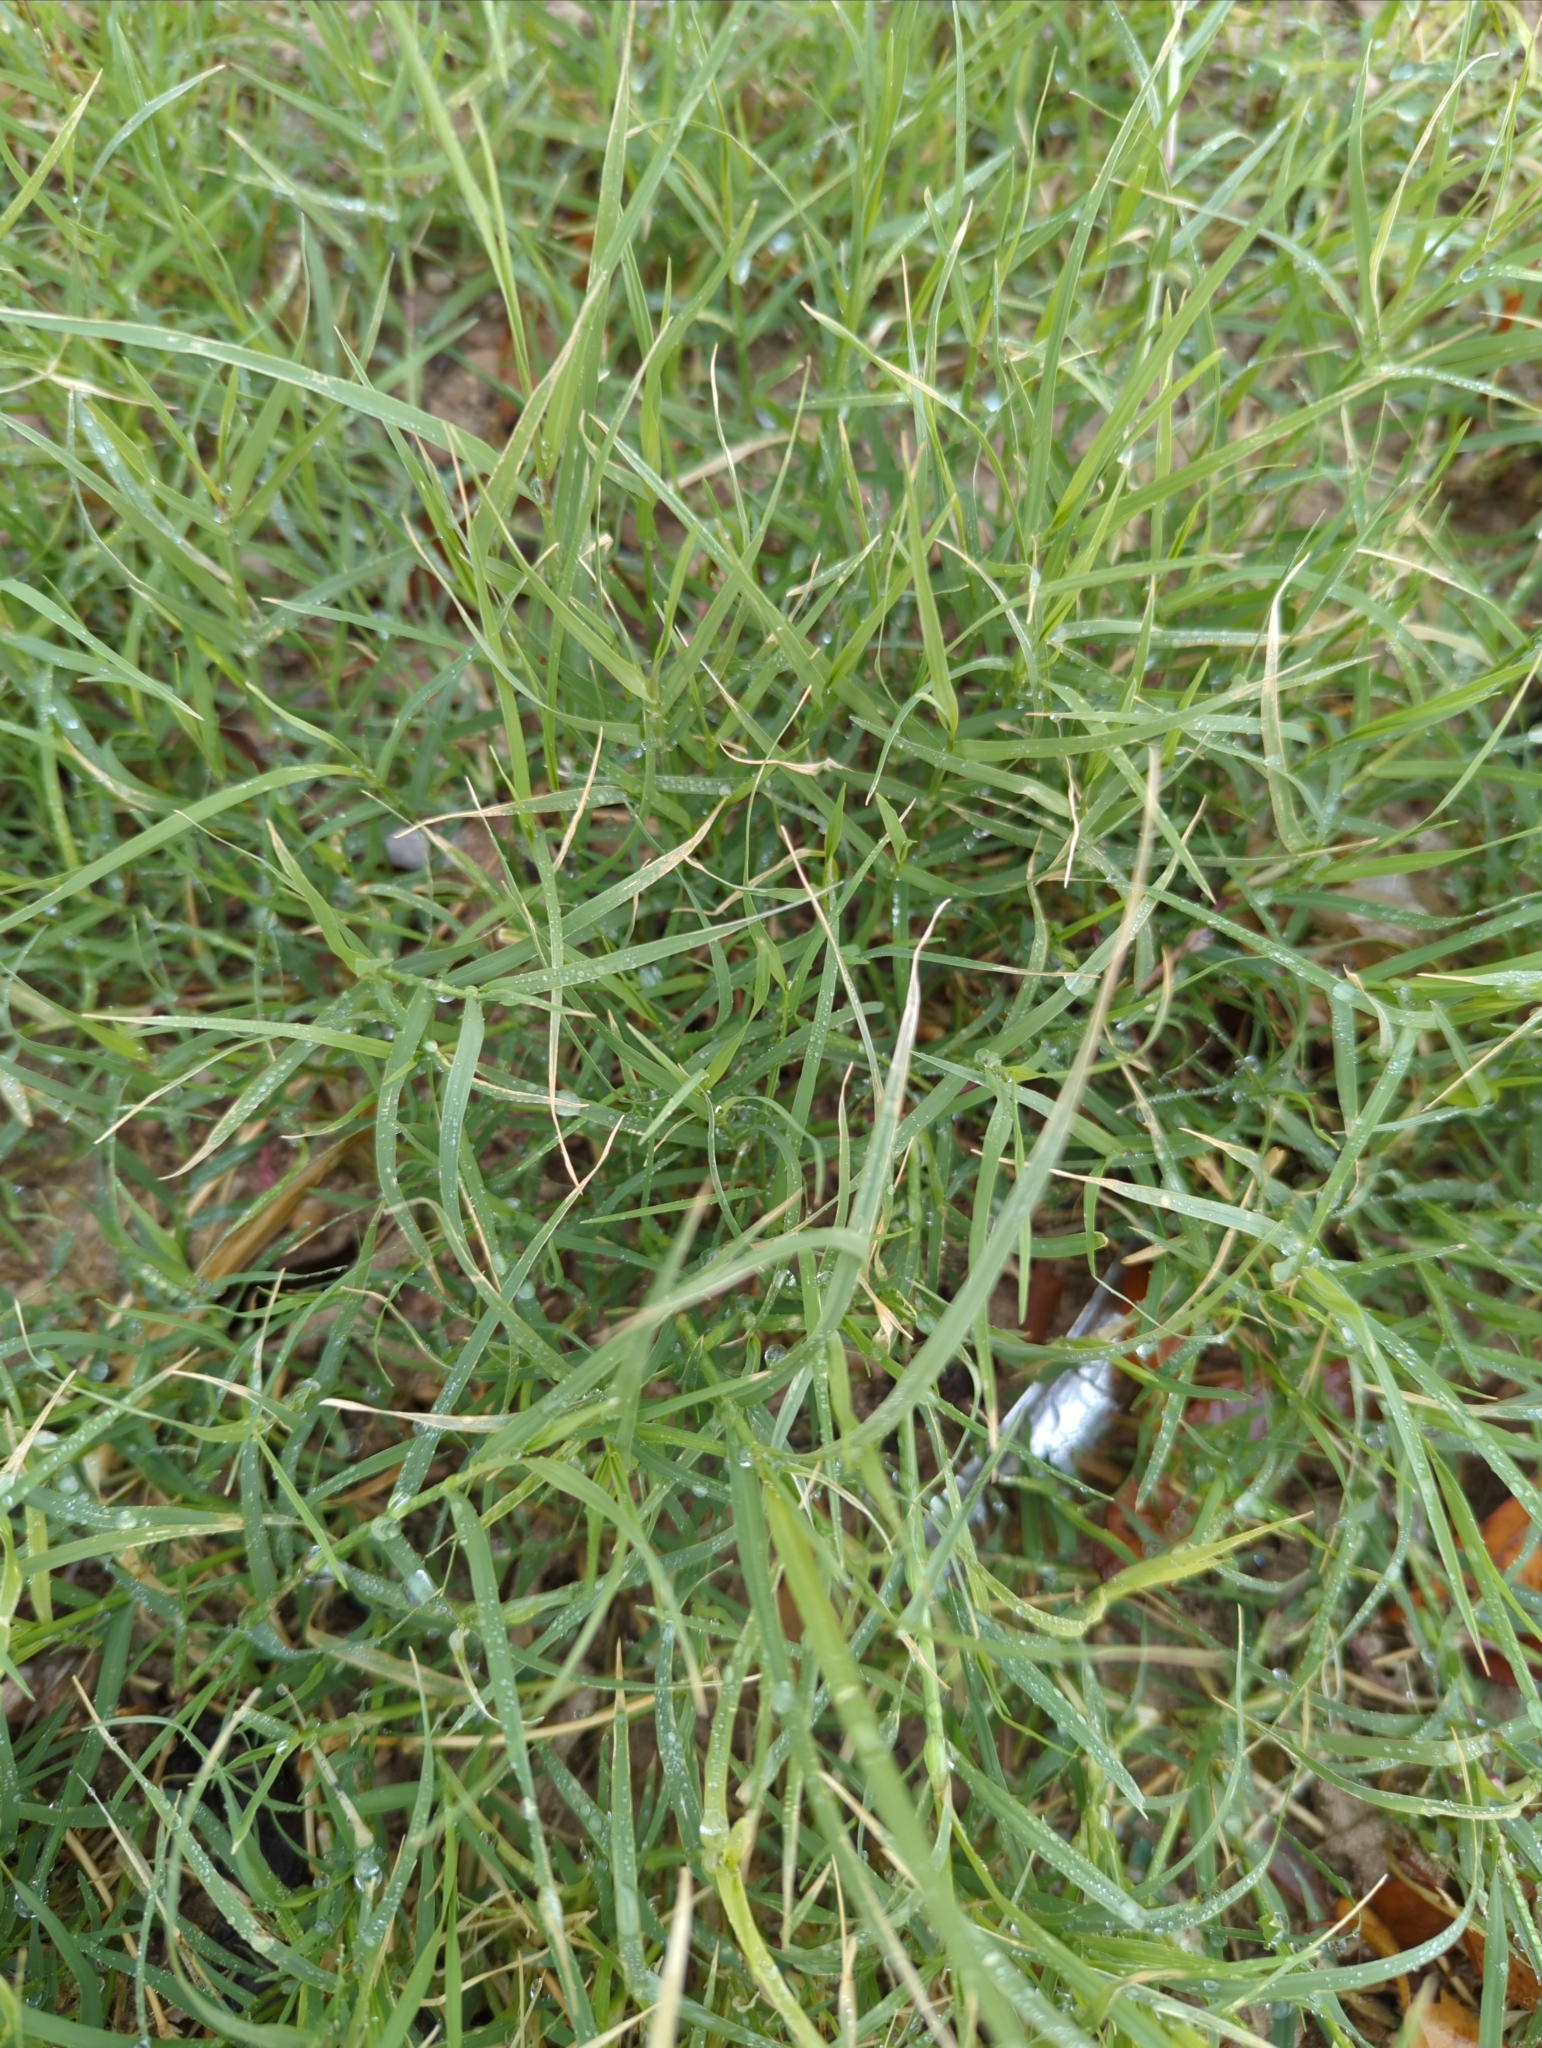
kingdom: Plantae
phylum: Tracheophyta
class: Liliopsida
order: Poales
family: Poaceae
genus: Cynodon
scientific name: Cynodon dactylon
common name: Bermuda grass
